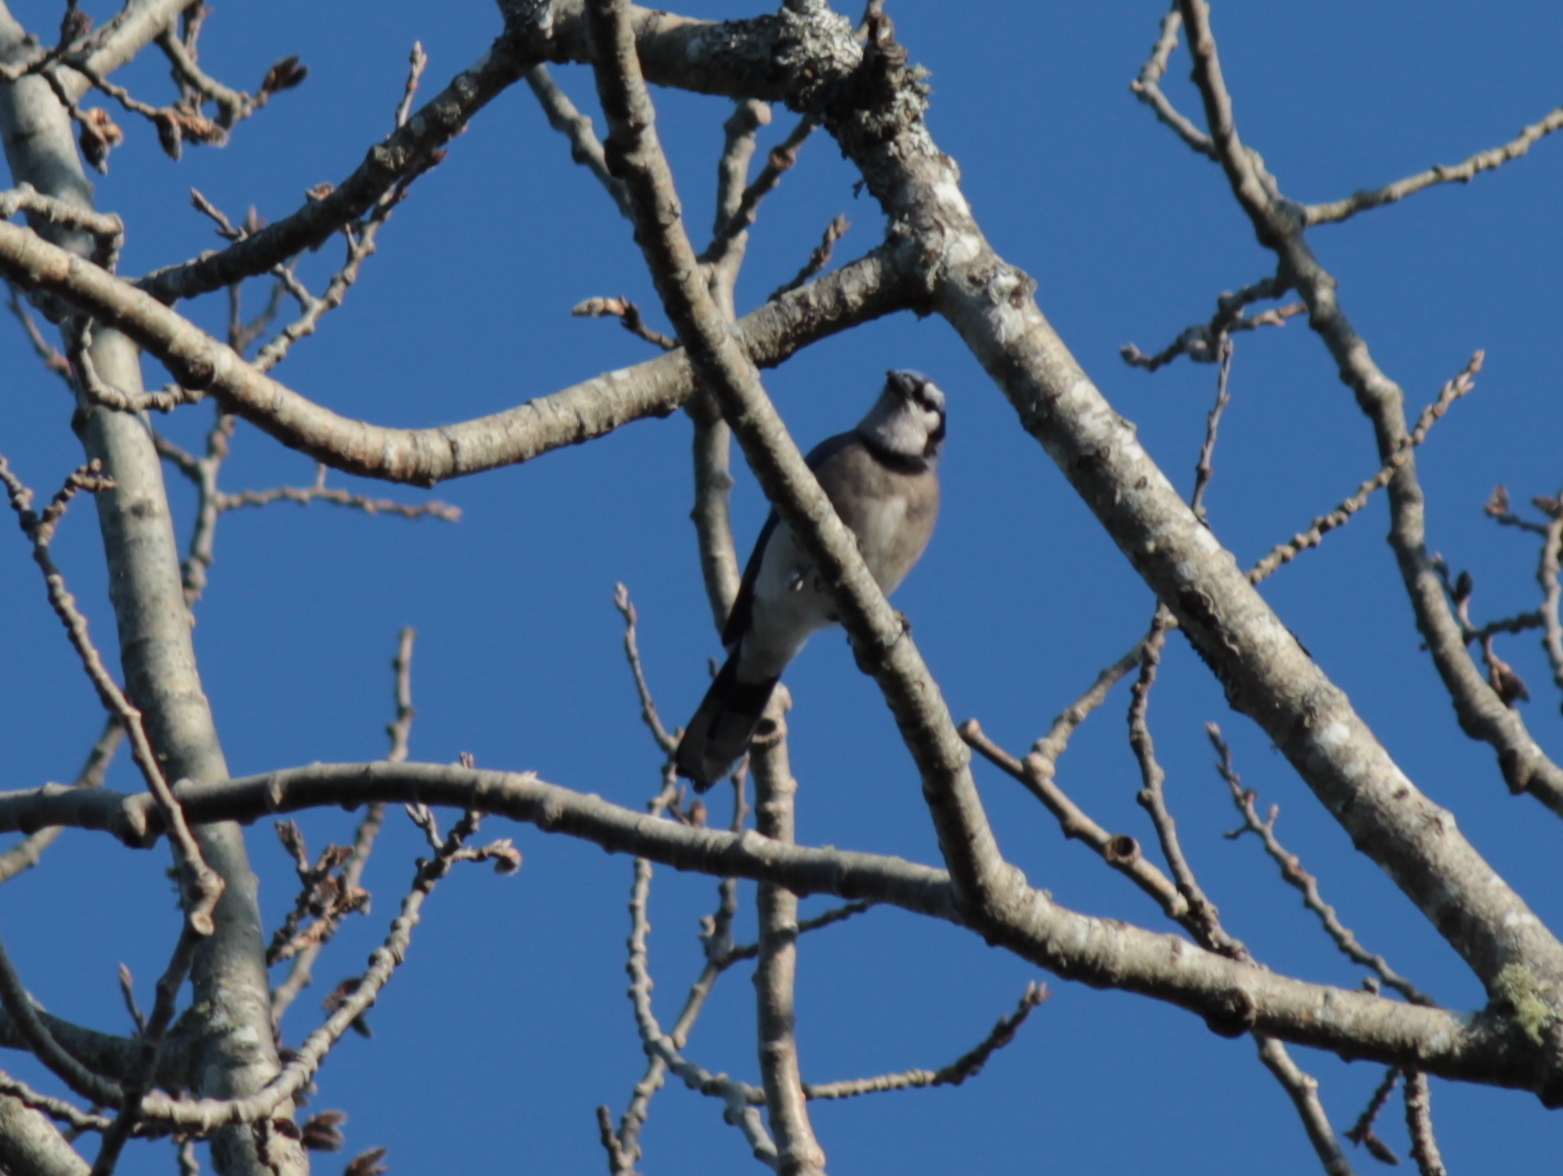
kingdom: Animalia
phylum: Chordata
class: Aves
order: Passeriformes
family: Corvidae
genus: Cyanocitta
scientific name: Cyanocitta cristata
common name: Blue jay
